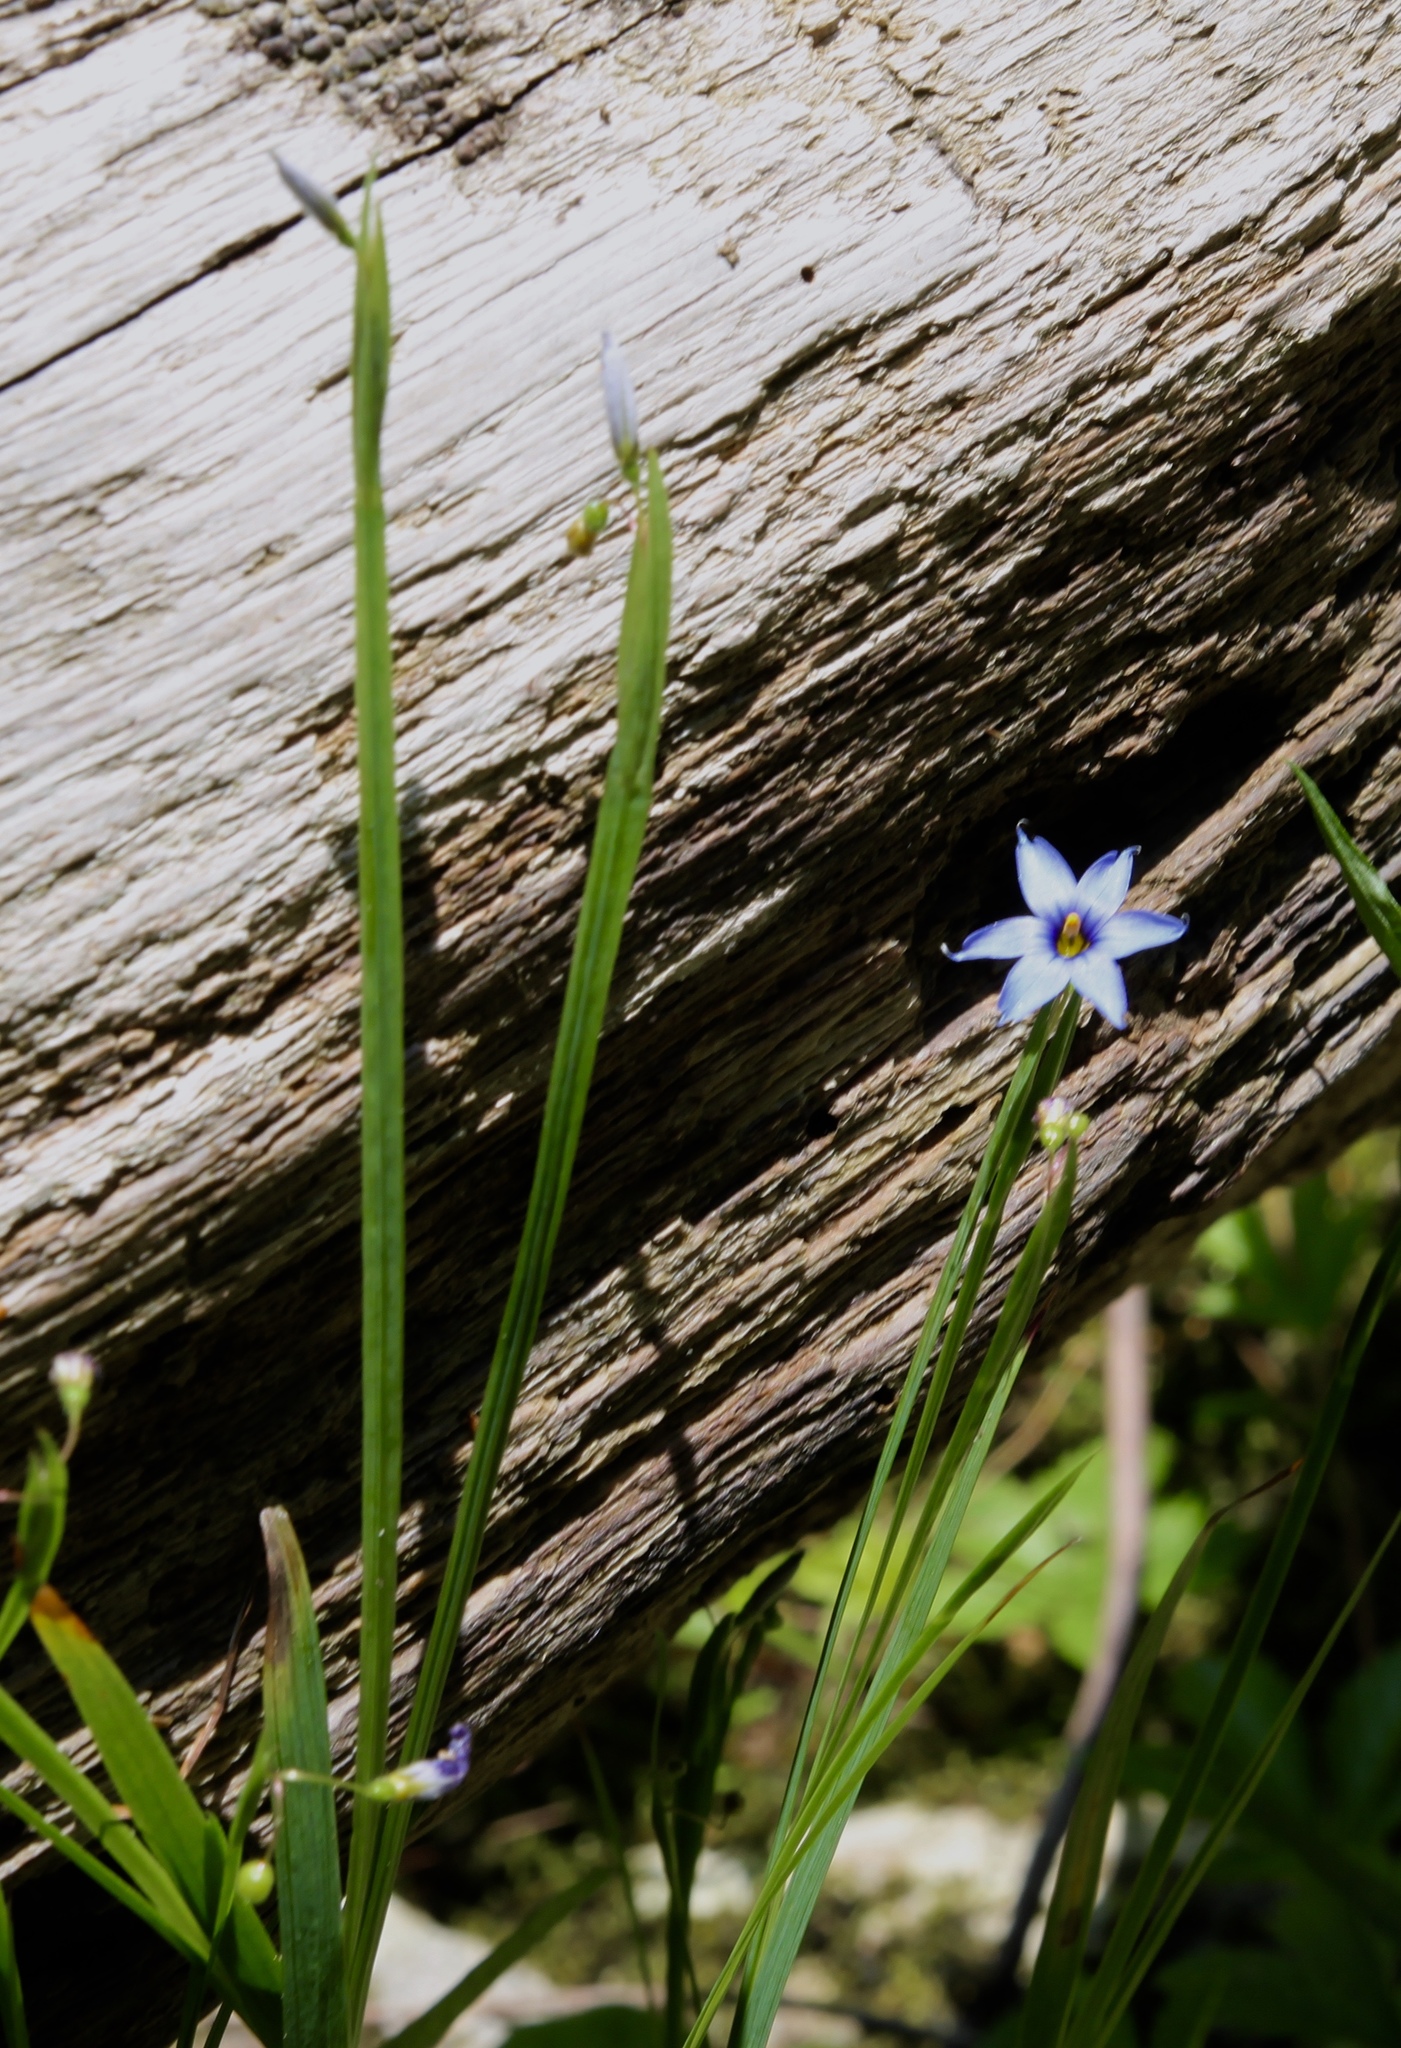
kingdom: Plantae
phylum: Tracheophyta
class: Liliopsida
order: Asparagales
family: Iridaceae
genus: Sisyrinchium
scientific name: Sisyrinchium angustifolium
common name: Narrow-leaf blue-eyed-grass
